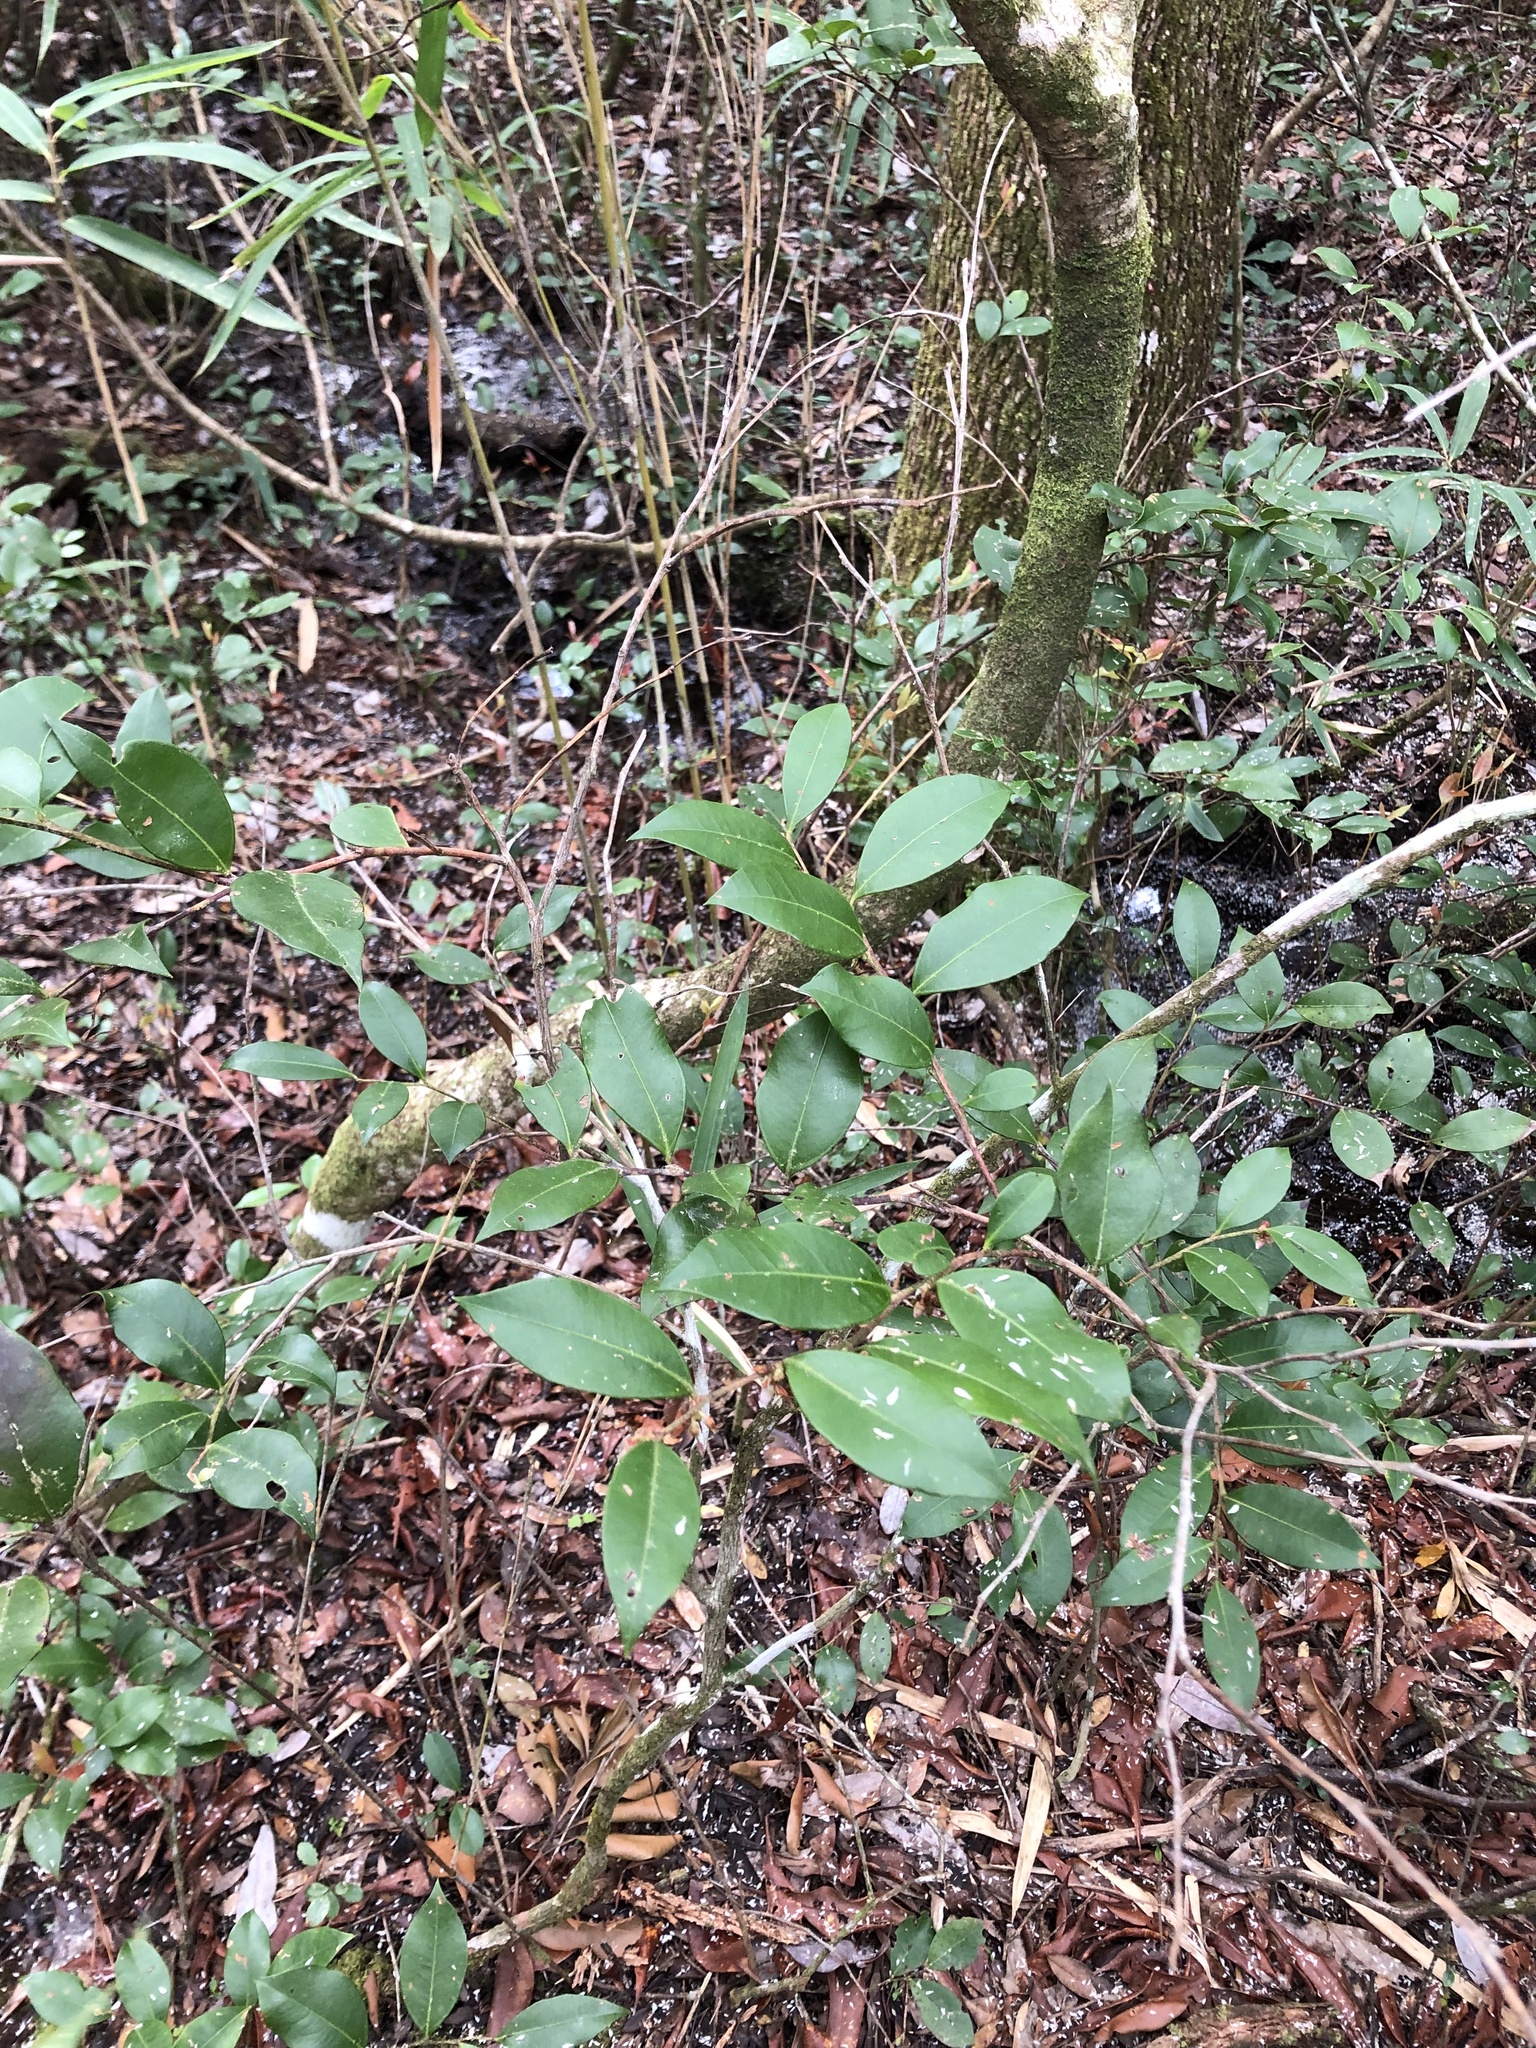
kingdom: Plantae
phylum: Tracheophyta
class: Magnoliopsida
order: Ericales
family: Ericaceae
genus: Lyonia
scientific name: Lyonia lucida
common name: Fetterbush
